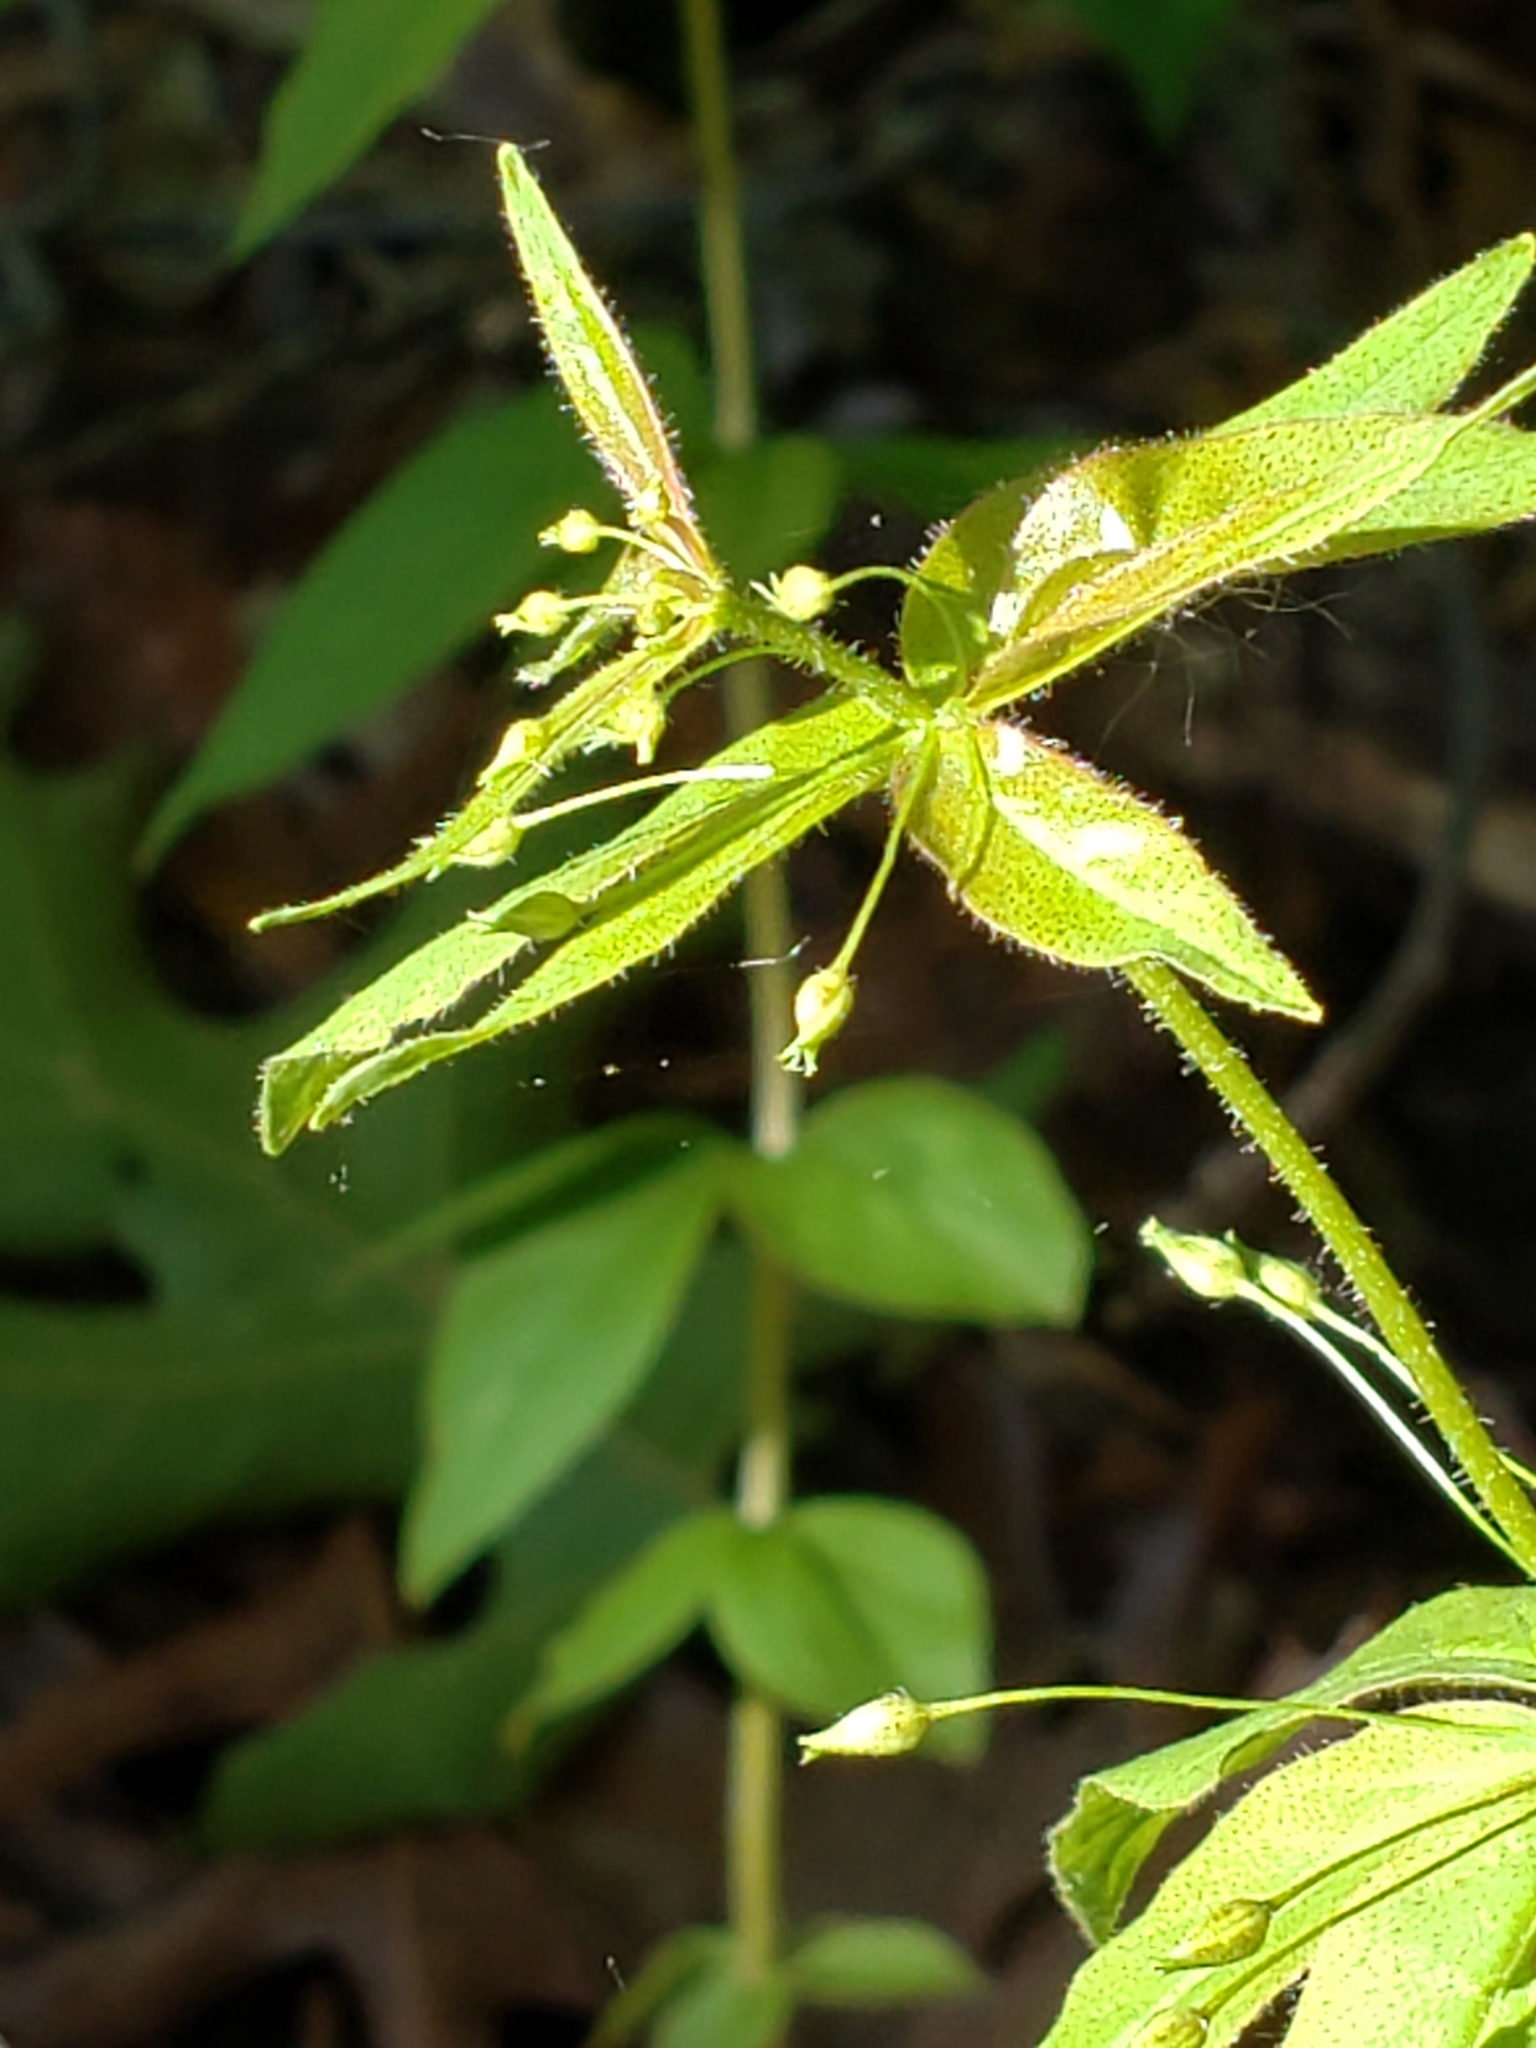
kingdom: Plantae
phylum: Tracheophyta
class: Magnoliopsida
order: Ericales
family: Primulaceae
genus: Lysimachia
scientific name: Lysimachia quadrifolia
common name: Whorled loosestrife
